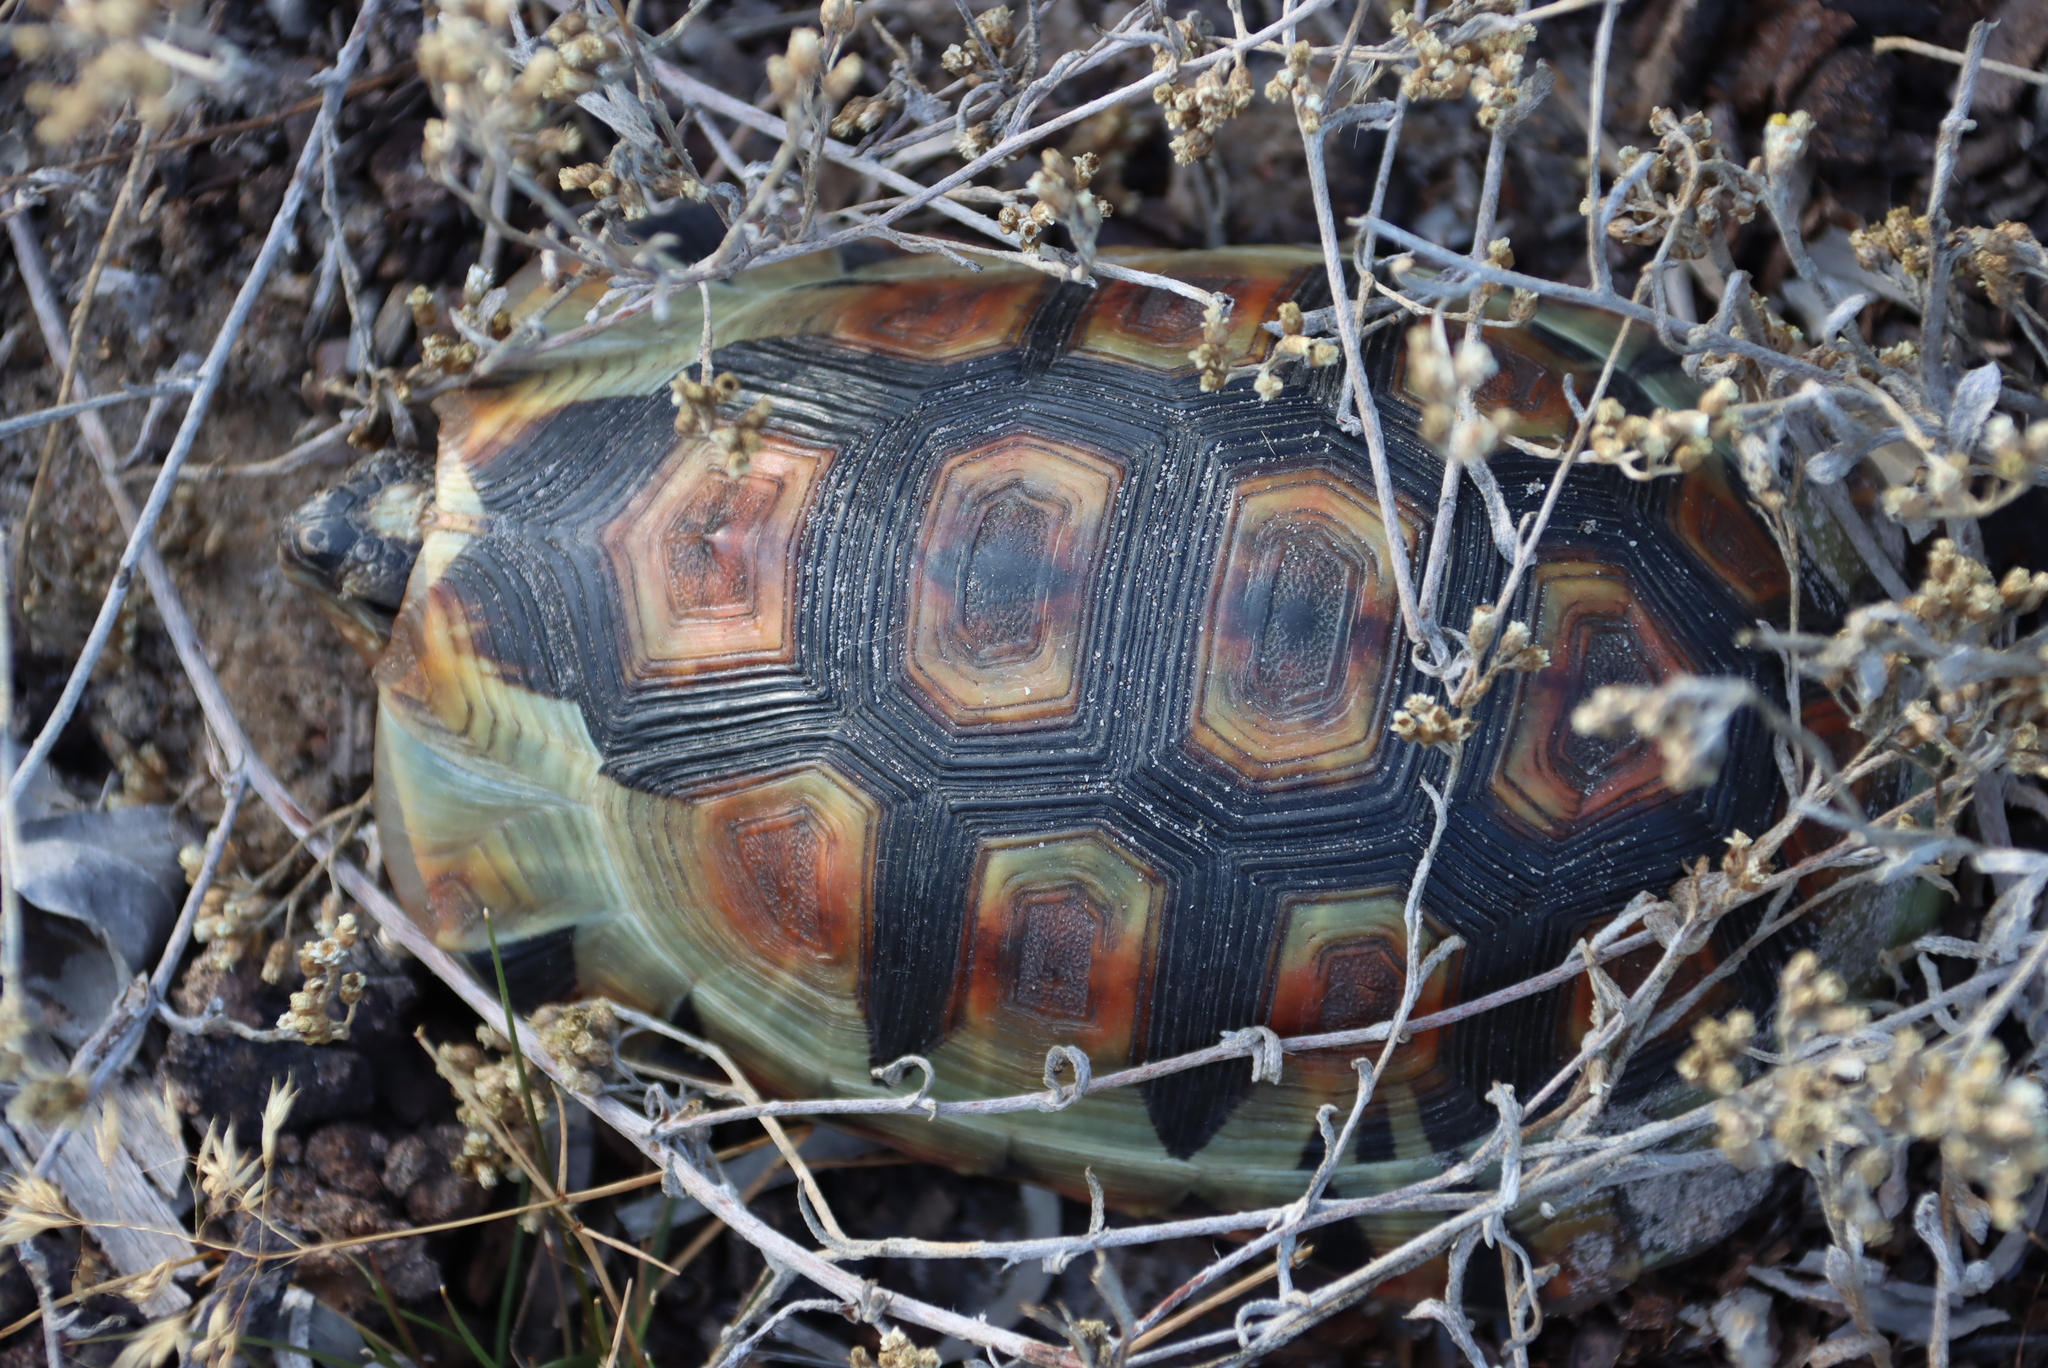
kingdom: Animalia
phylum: Chordata
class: Testudines
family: Testudinidae
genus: Chersina
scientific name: Chersina angulata
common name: South african bowsprit tortoise
